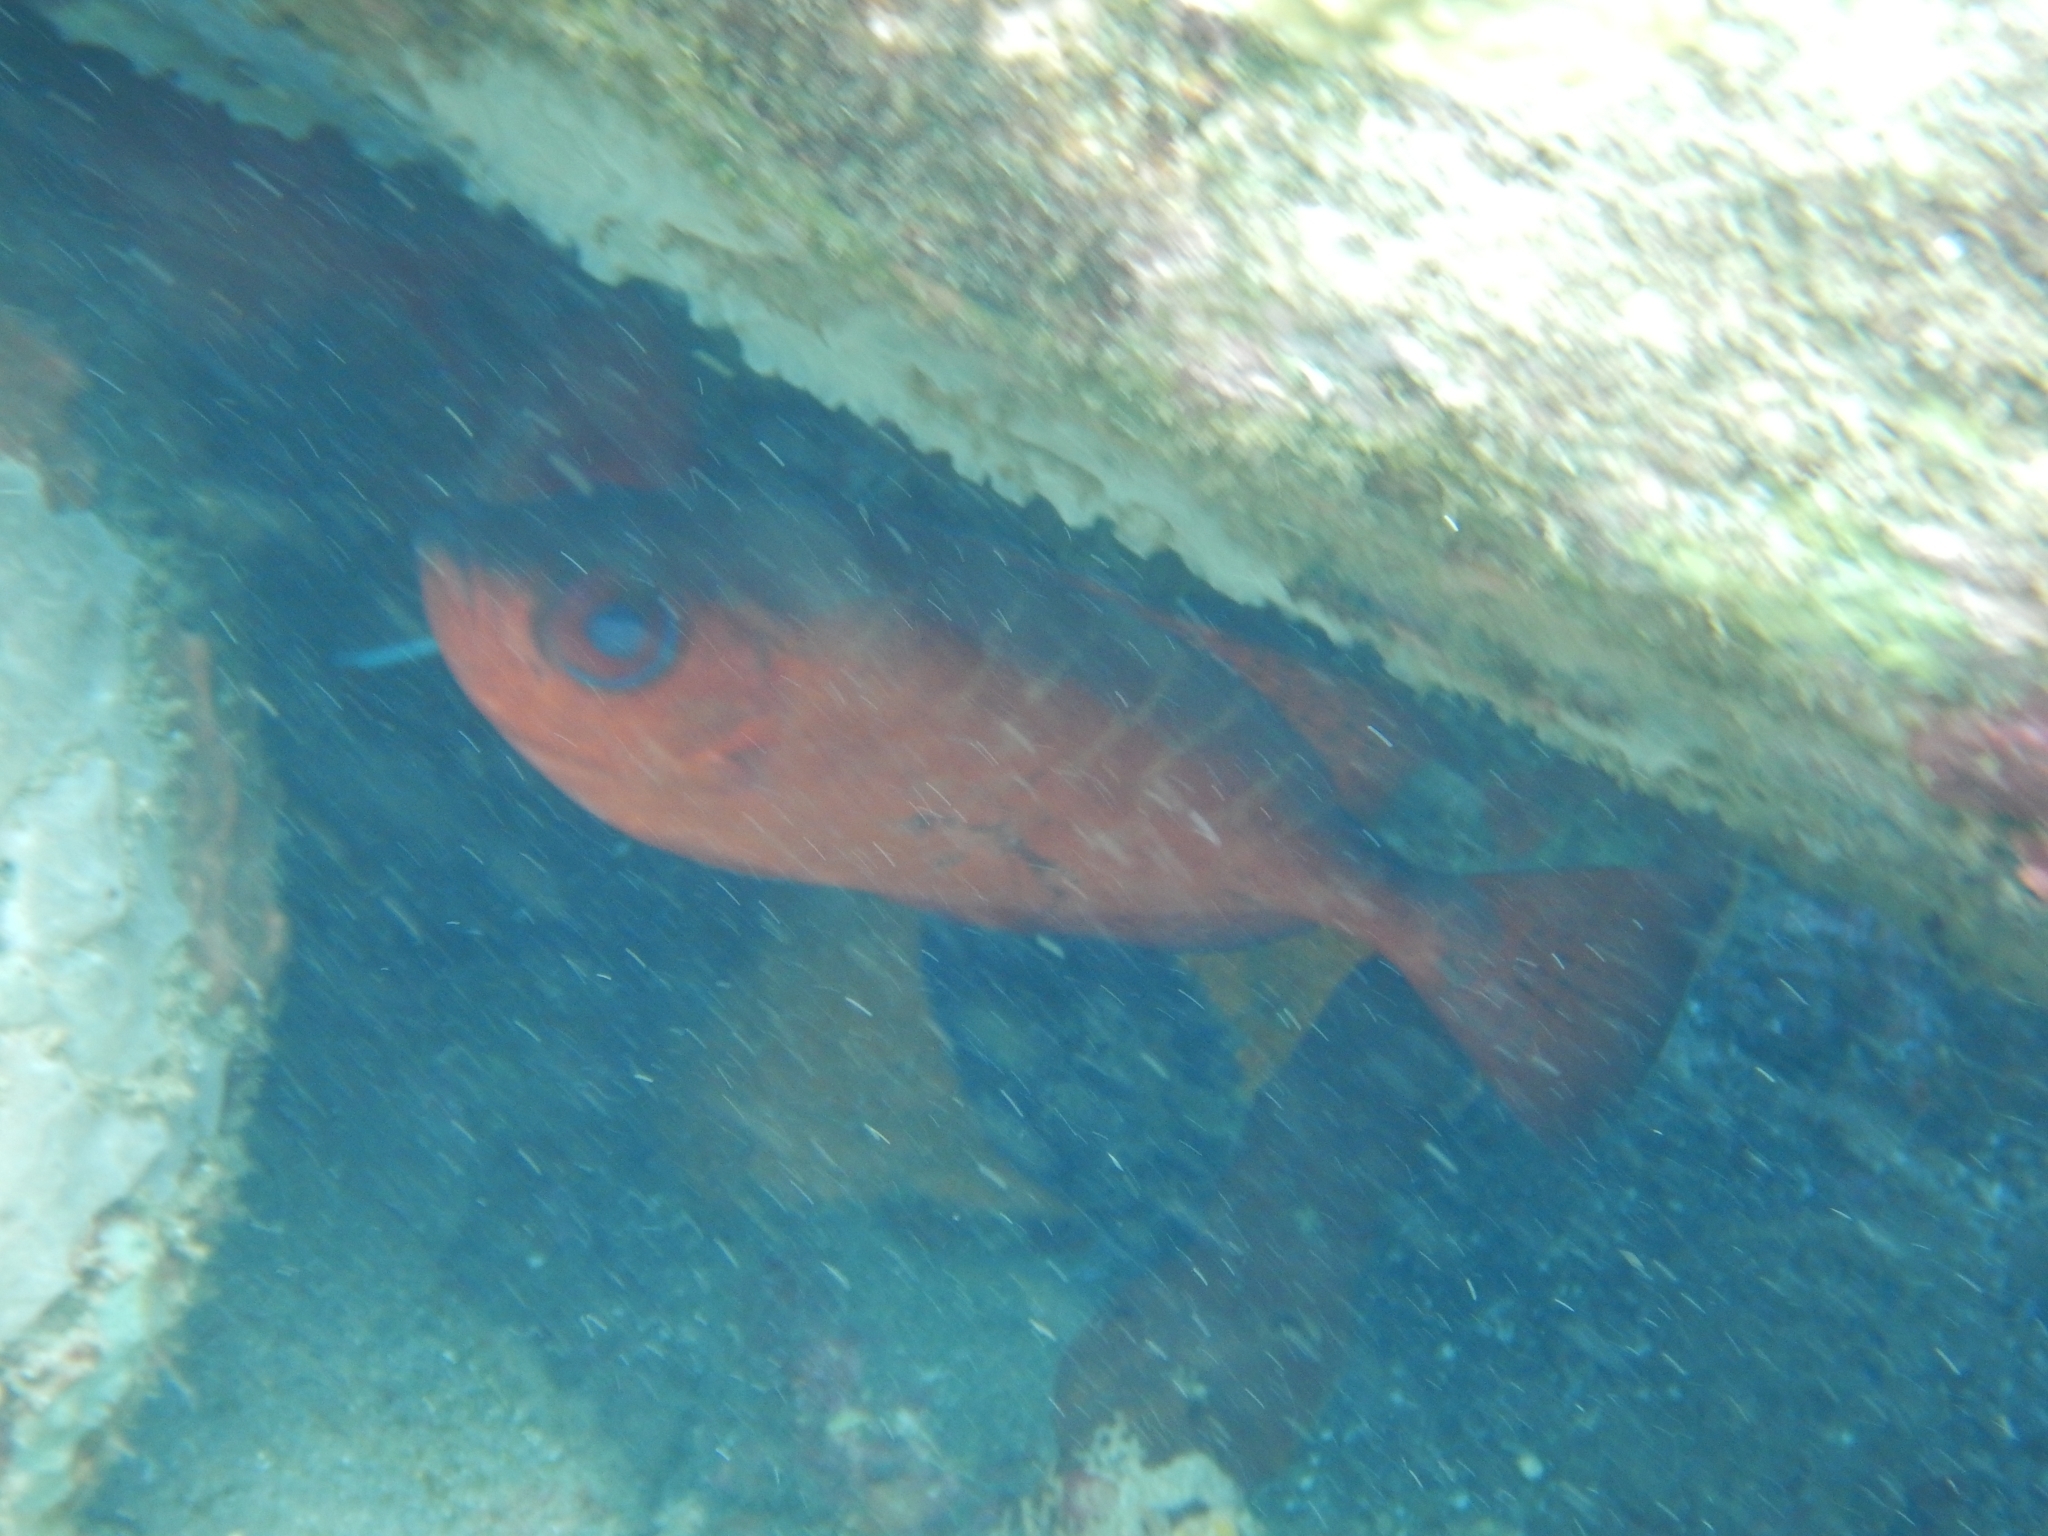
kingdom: Animalia
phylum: Chordata
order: Perciformes
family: Priacanthidae
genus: Heteropriacanthus
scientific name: Heteropriacanthus cruentatus
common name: Glasseye
